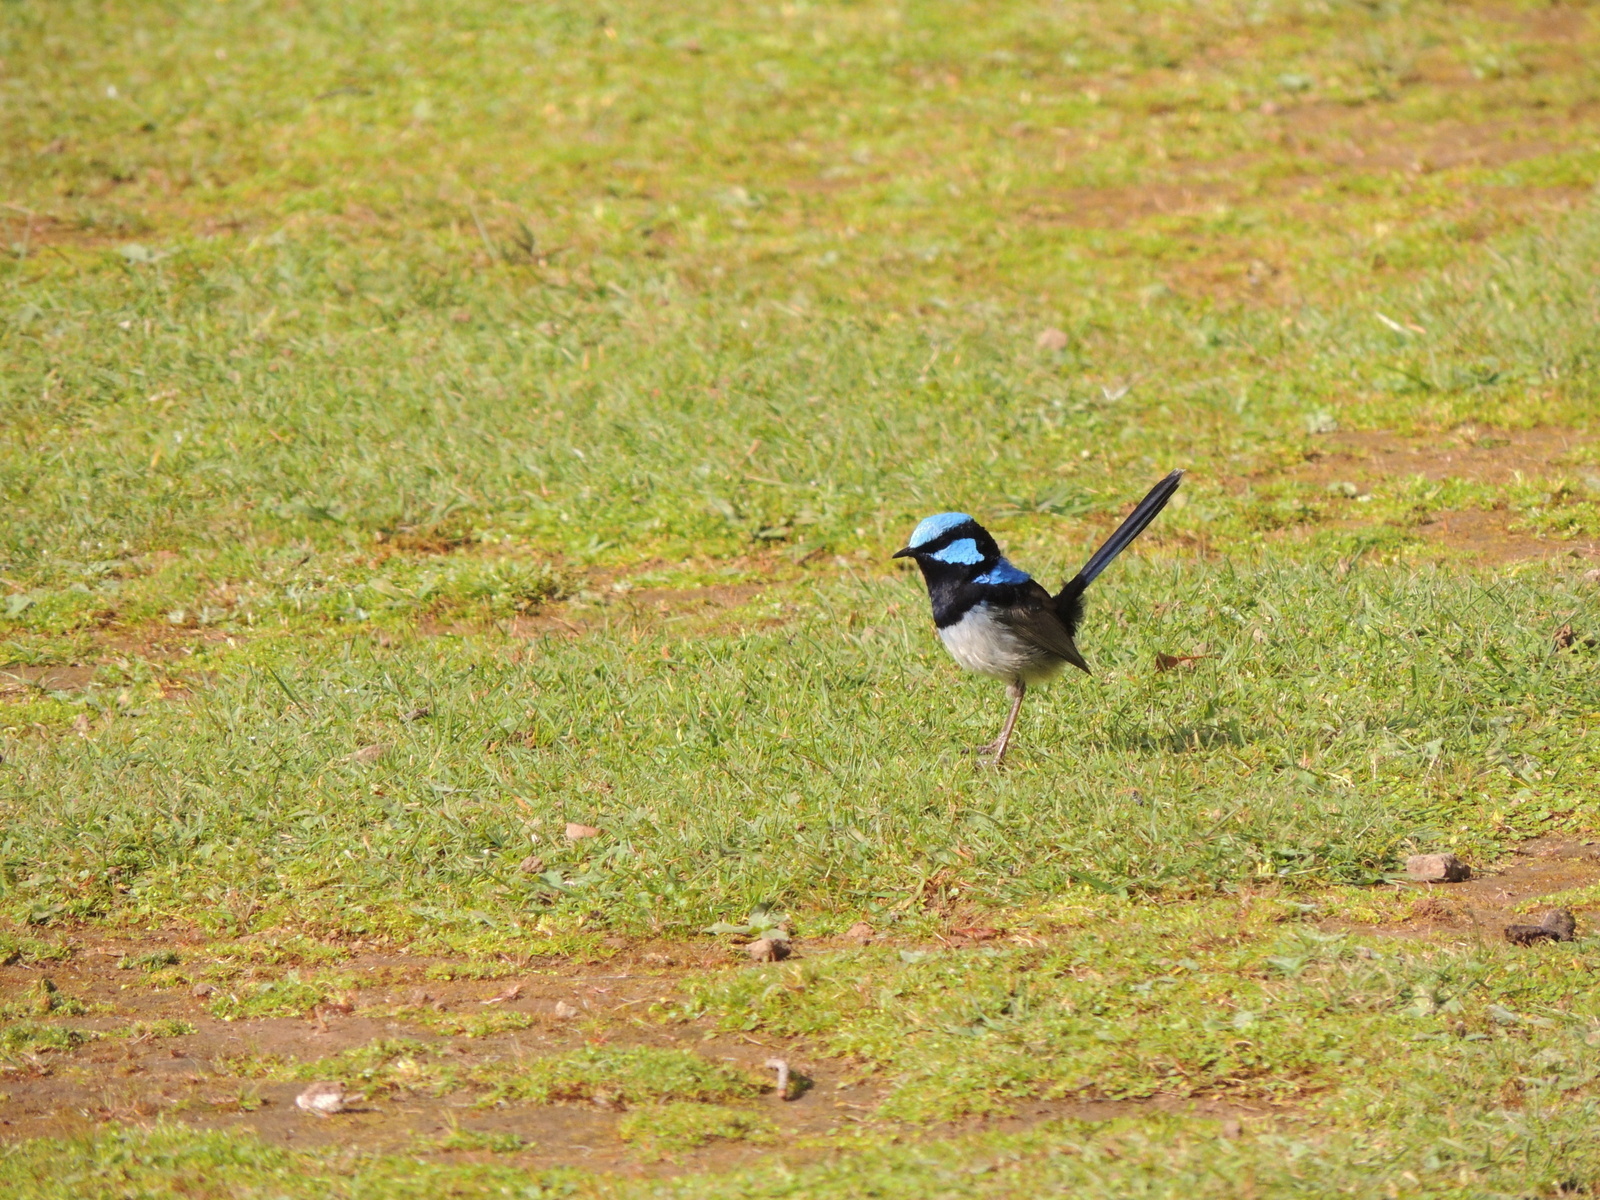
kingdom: Animalia
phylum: Chordata
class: Aves
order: Passeriformes
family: Maluridae
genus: Malurus
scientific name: Malurus cyaneus
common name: Superb fairywren
